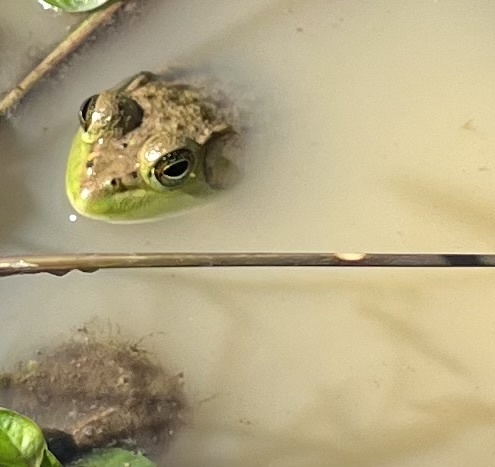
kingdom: Animalia
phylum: Chordata
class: Amphibia
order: Anura
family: Ranidae
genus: Lithobates
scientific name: Lithobates catesbeianus
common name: American bullfrog
